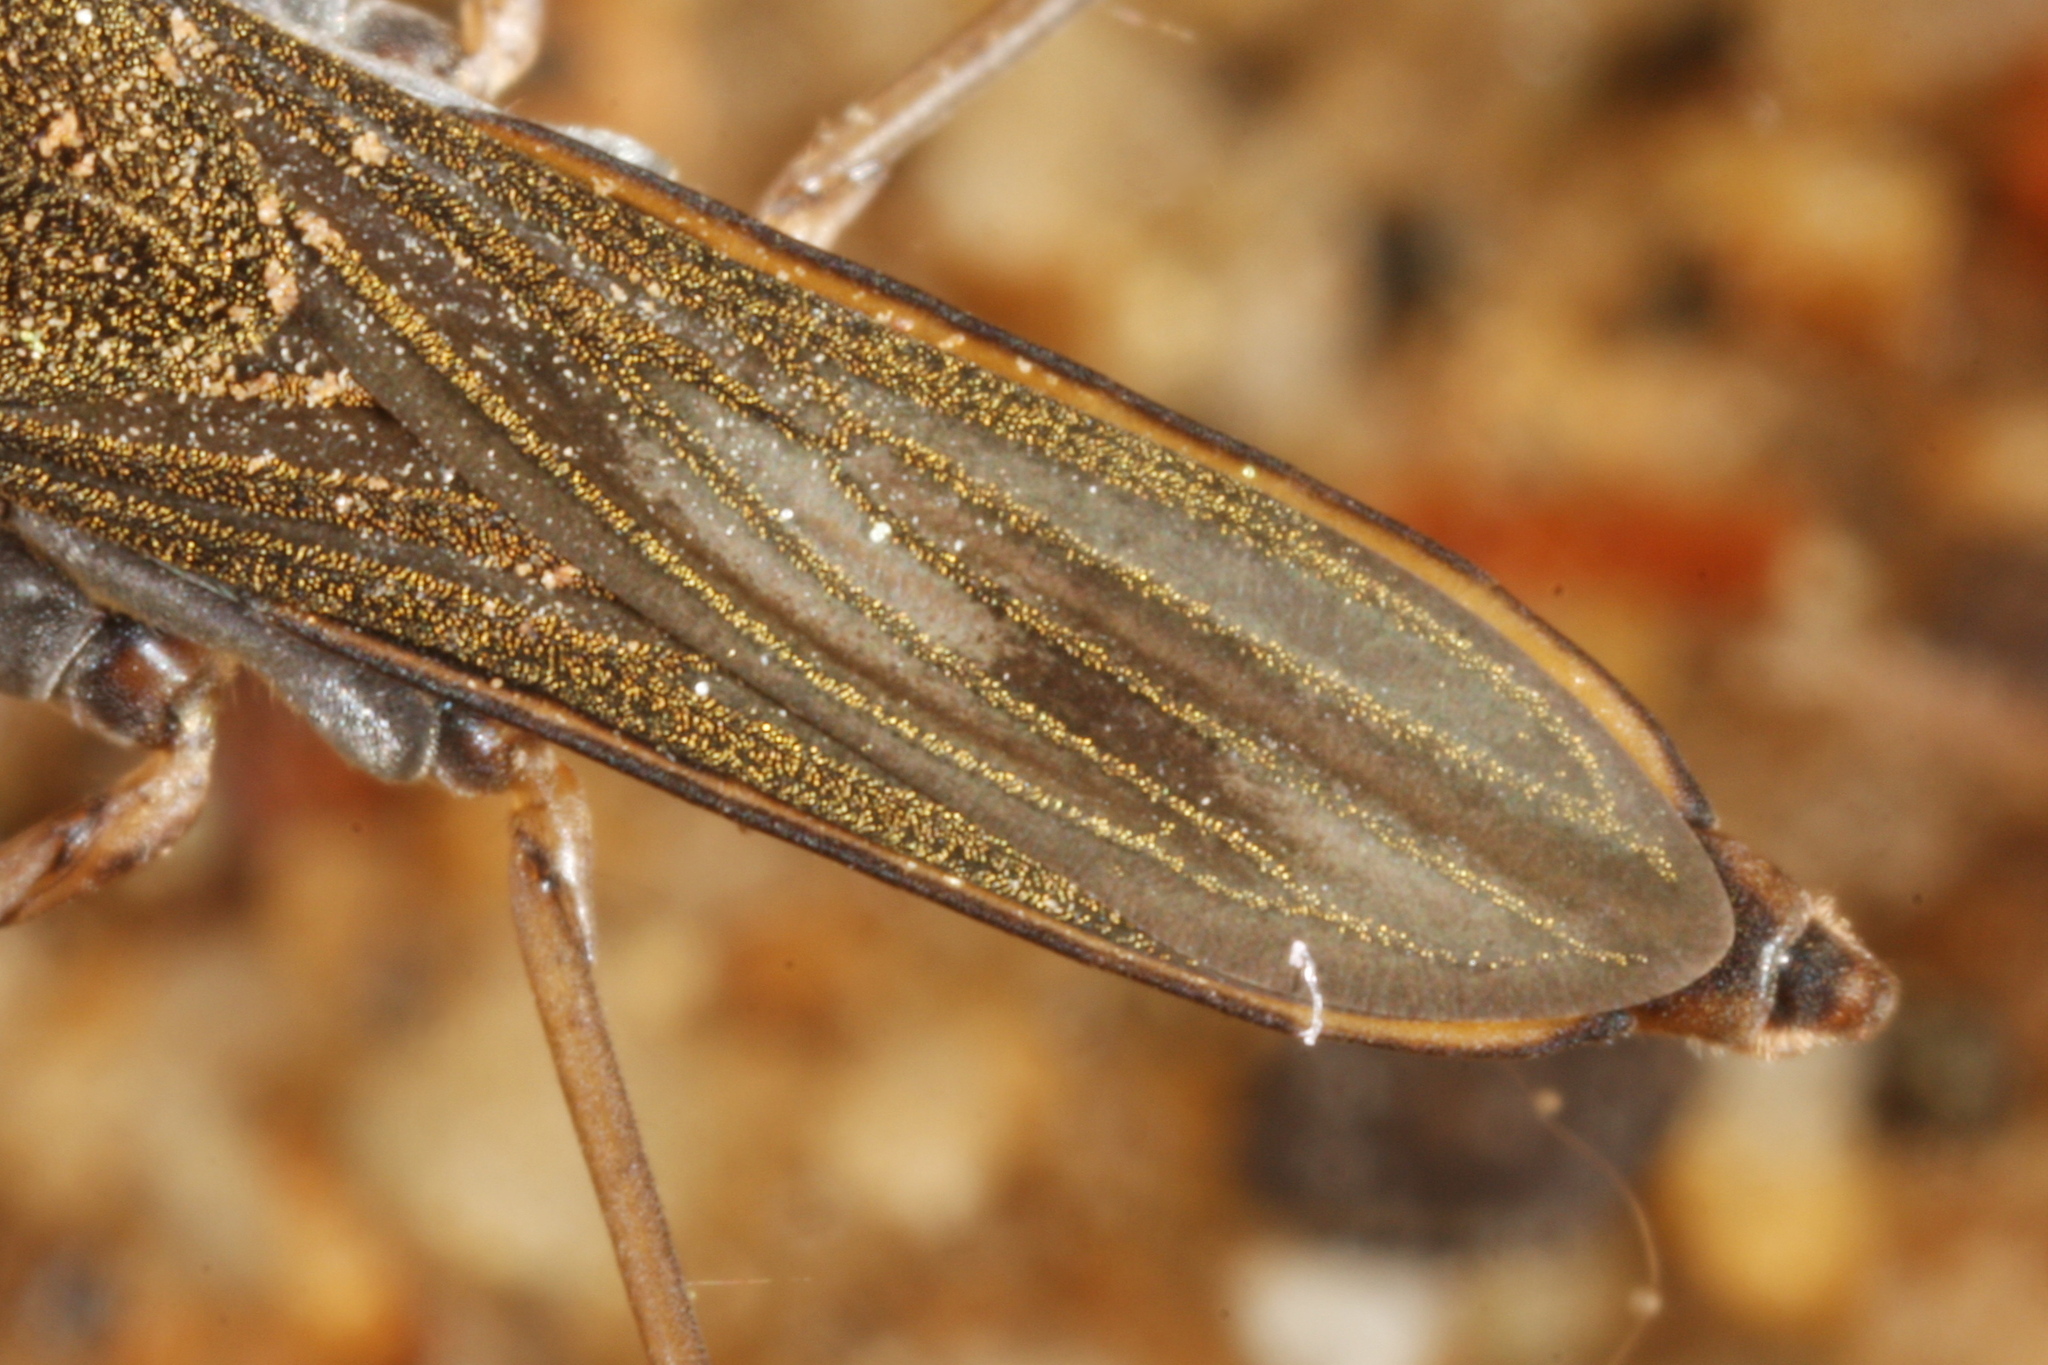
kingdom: Animalia
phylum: Arthropoda
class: Insecta
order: Hemiptera
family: Gerridae
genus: Gerris
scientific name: Gerris lacustris
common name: Common pondskater
